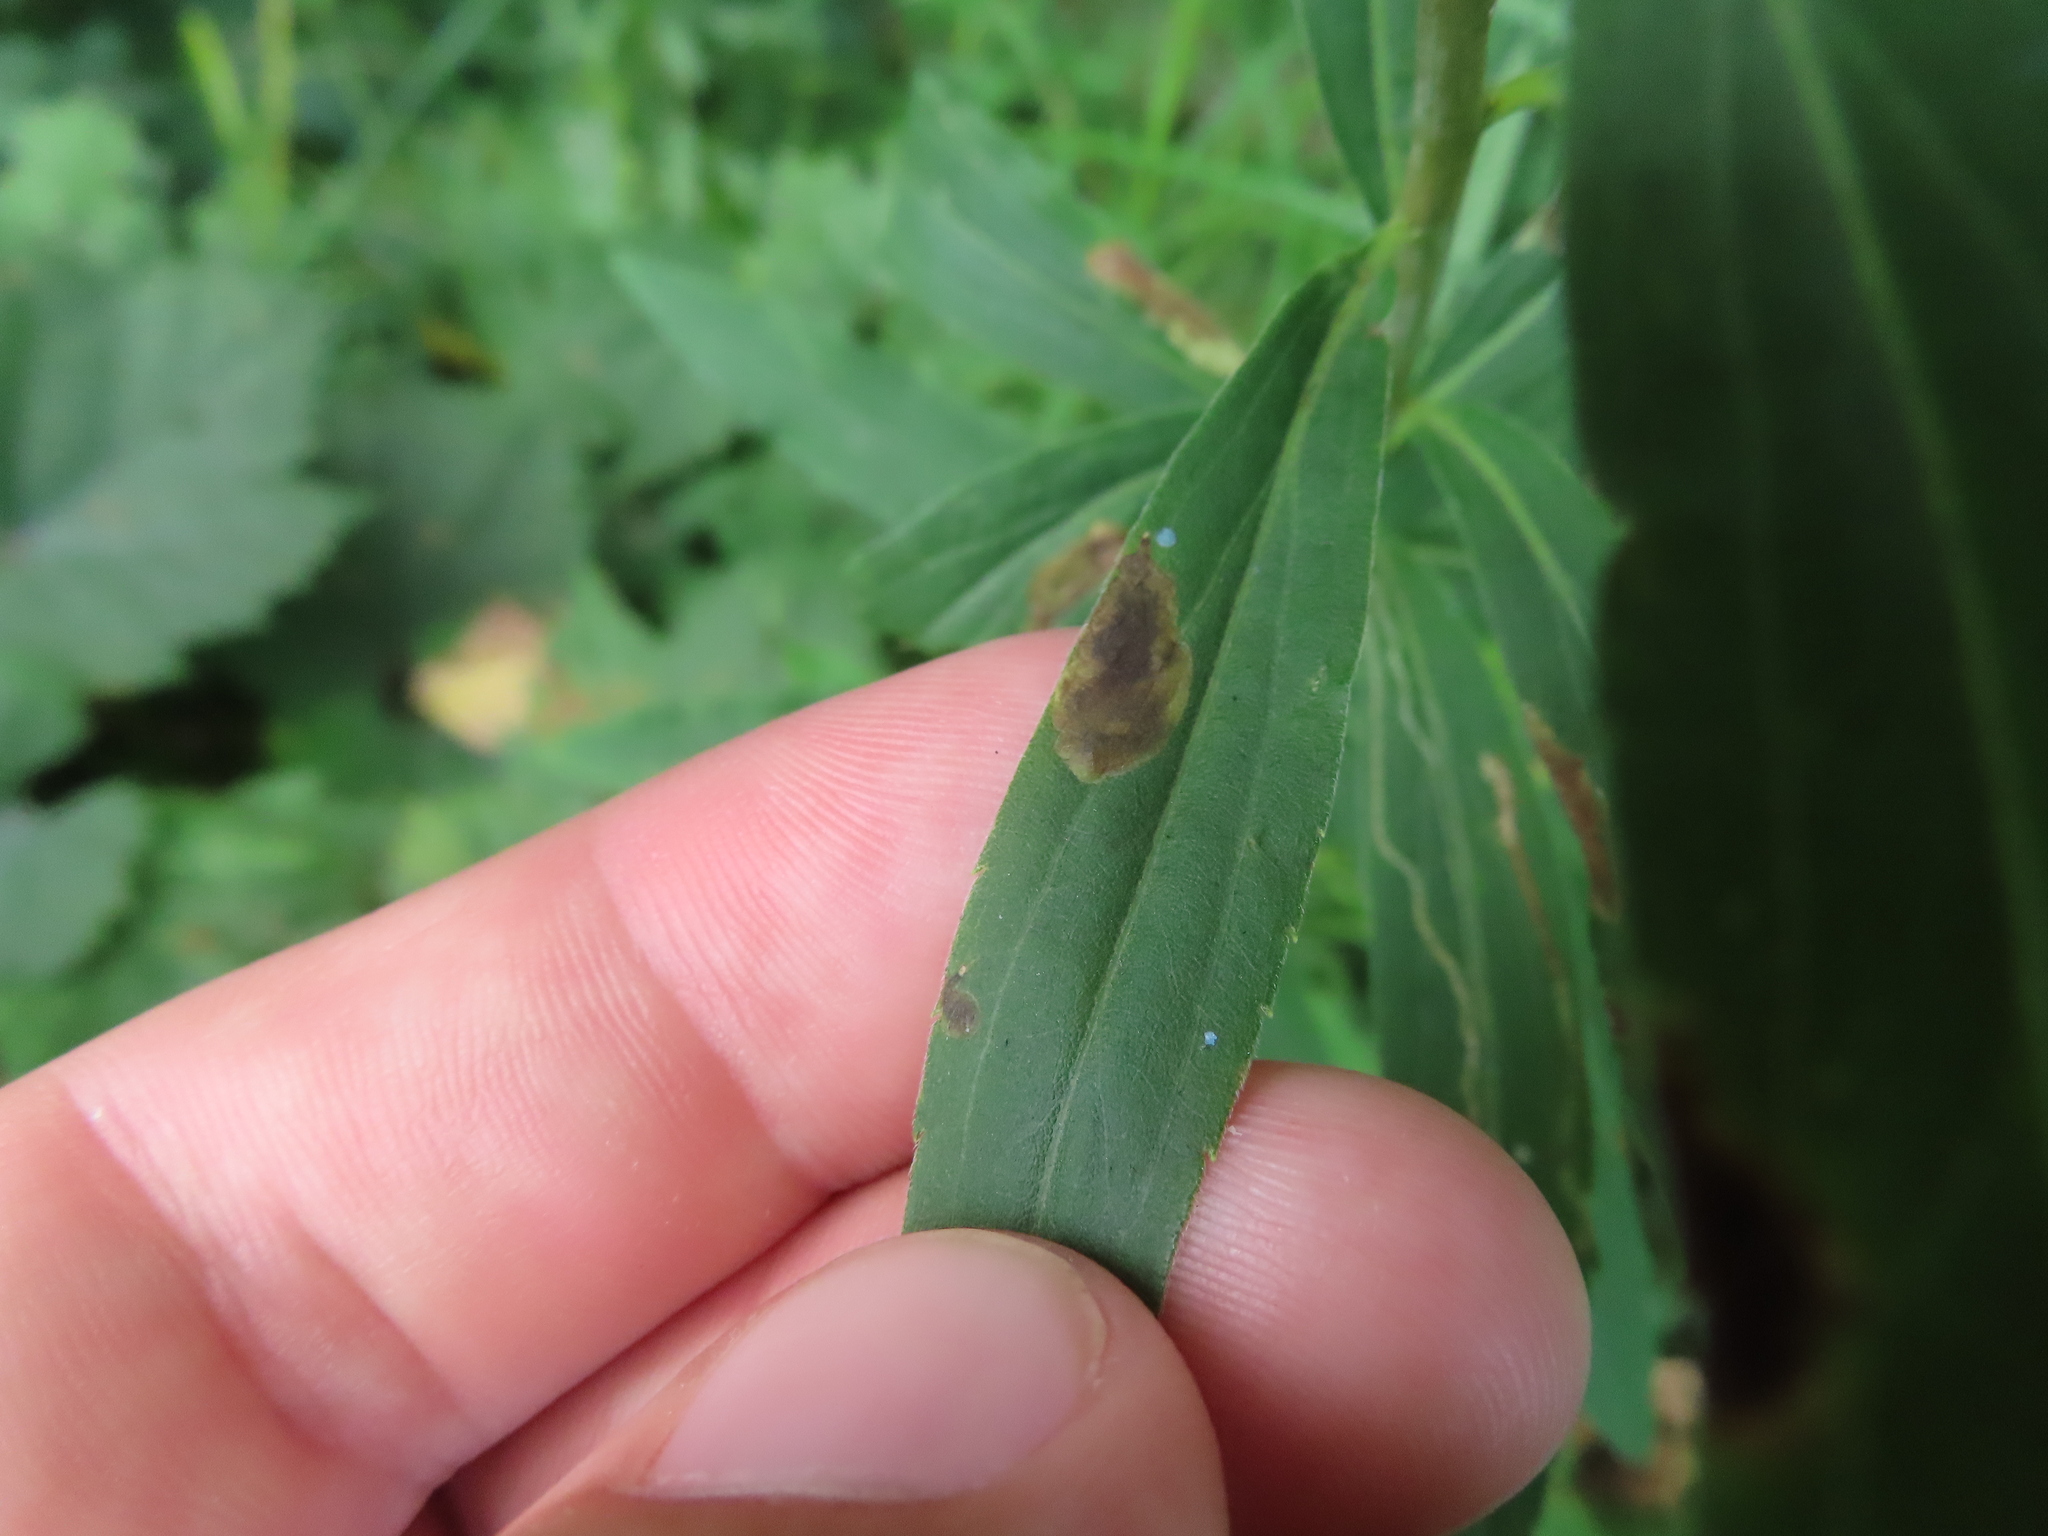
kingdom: Animalia
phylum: Arthropoda
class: Insecta
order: Diptera
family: Agromyzidae
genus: Nemorimyza
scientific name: Nemorimyza posticata
